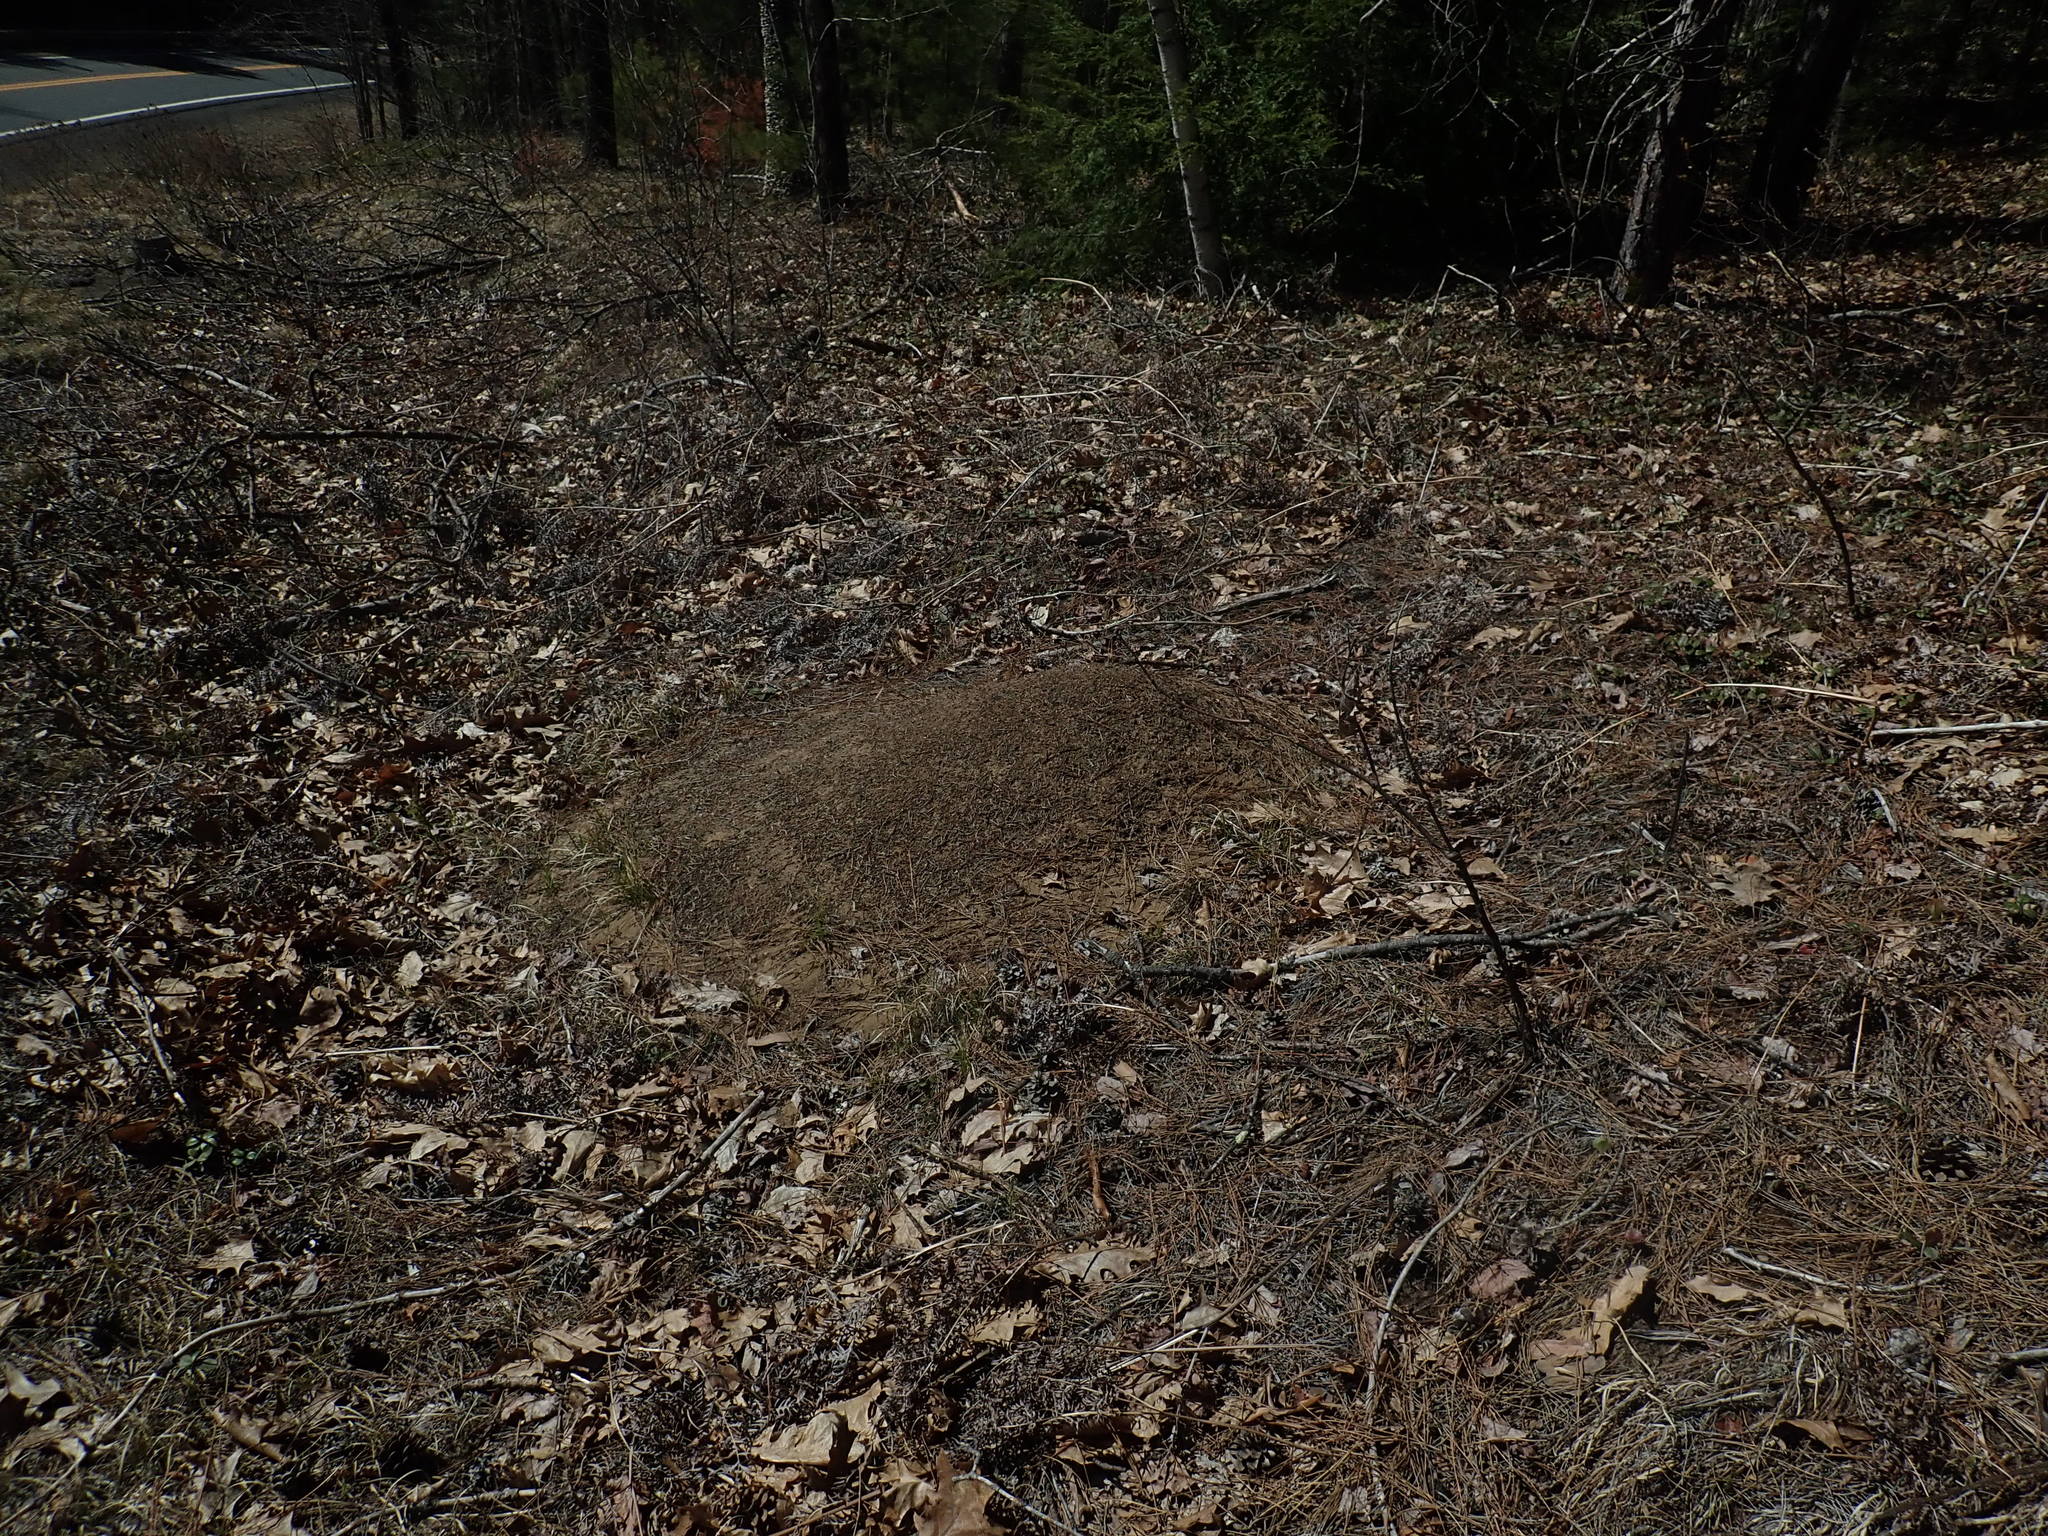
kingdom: Animalia
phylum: Arthropoda
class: Insecta
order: Hymenoptera
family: Formicidae
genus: Formica
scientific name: Formica exsectoides
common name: Allegheny mound ant
